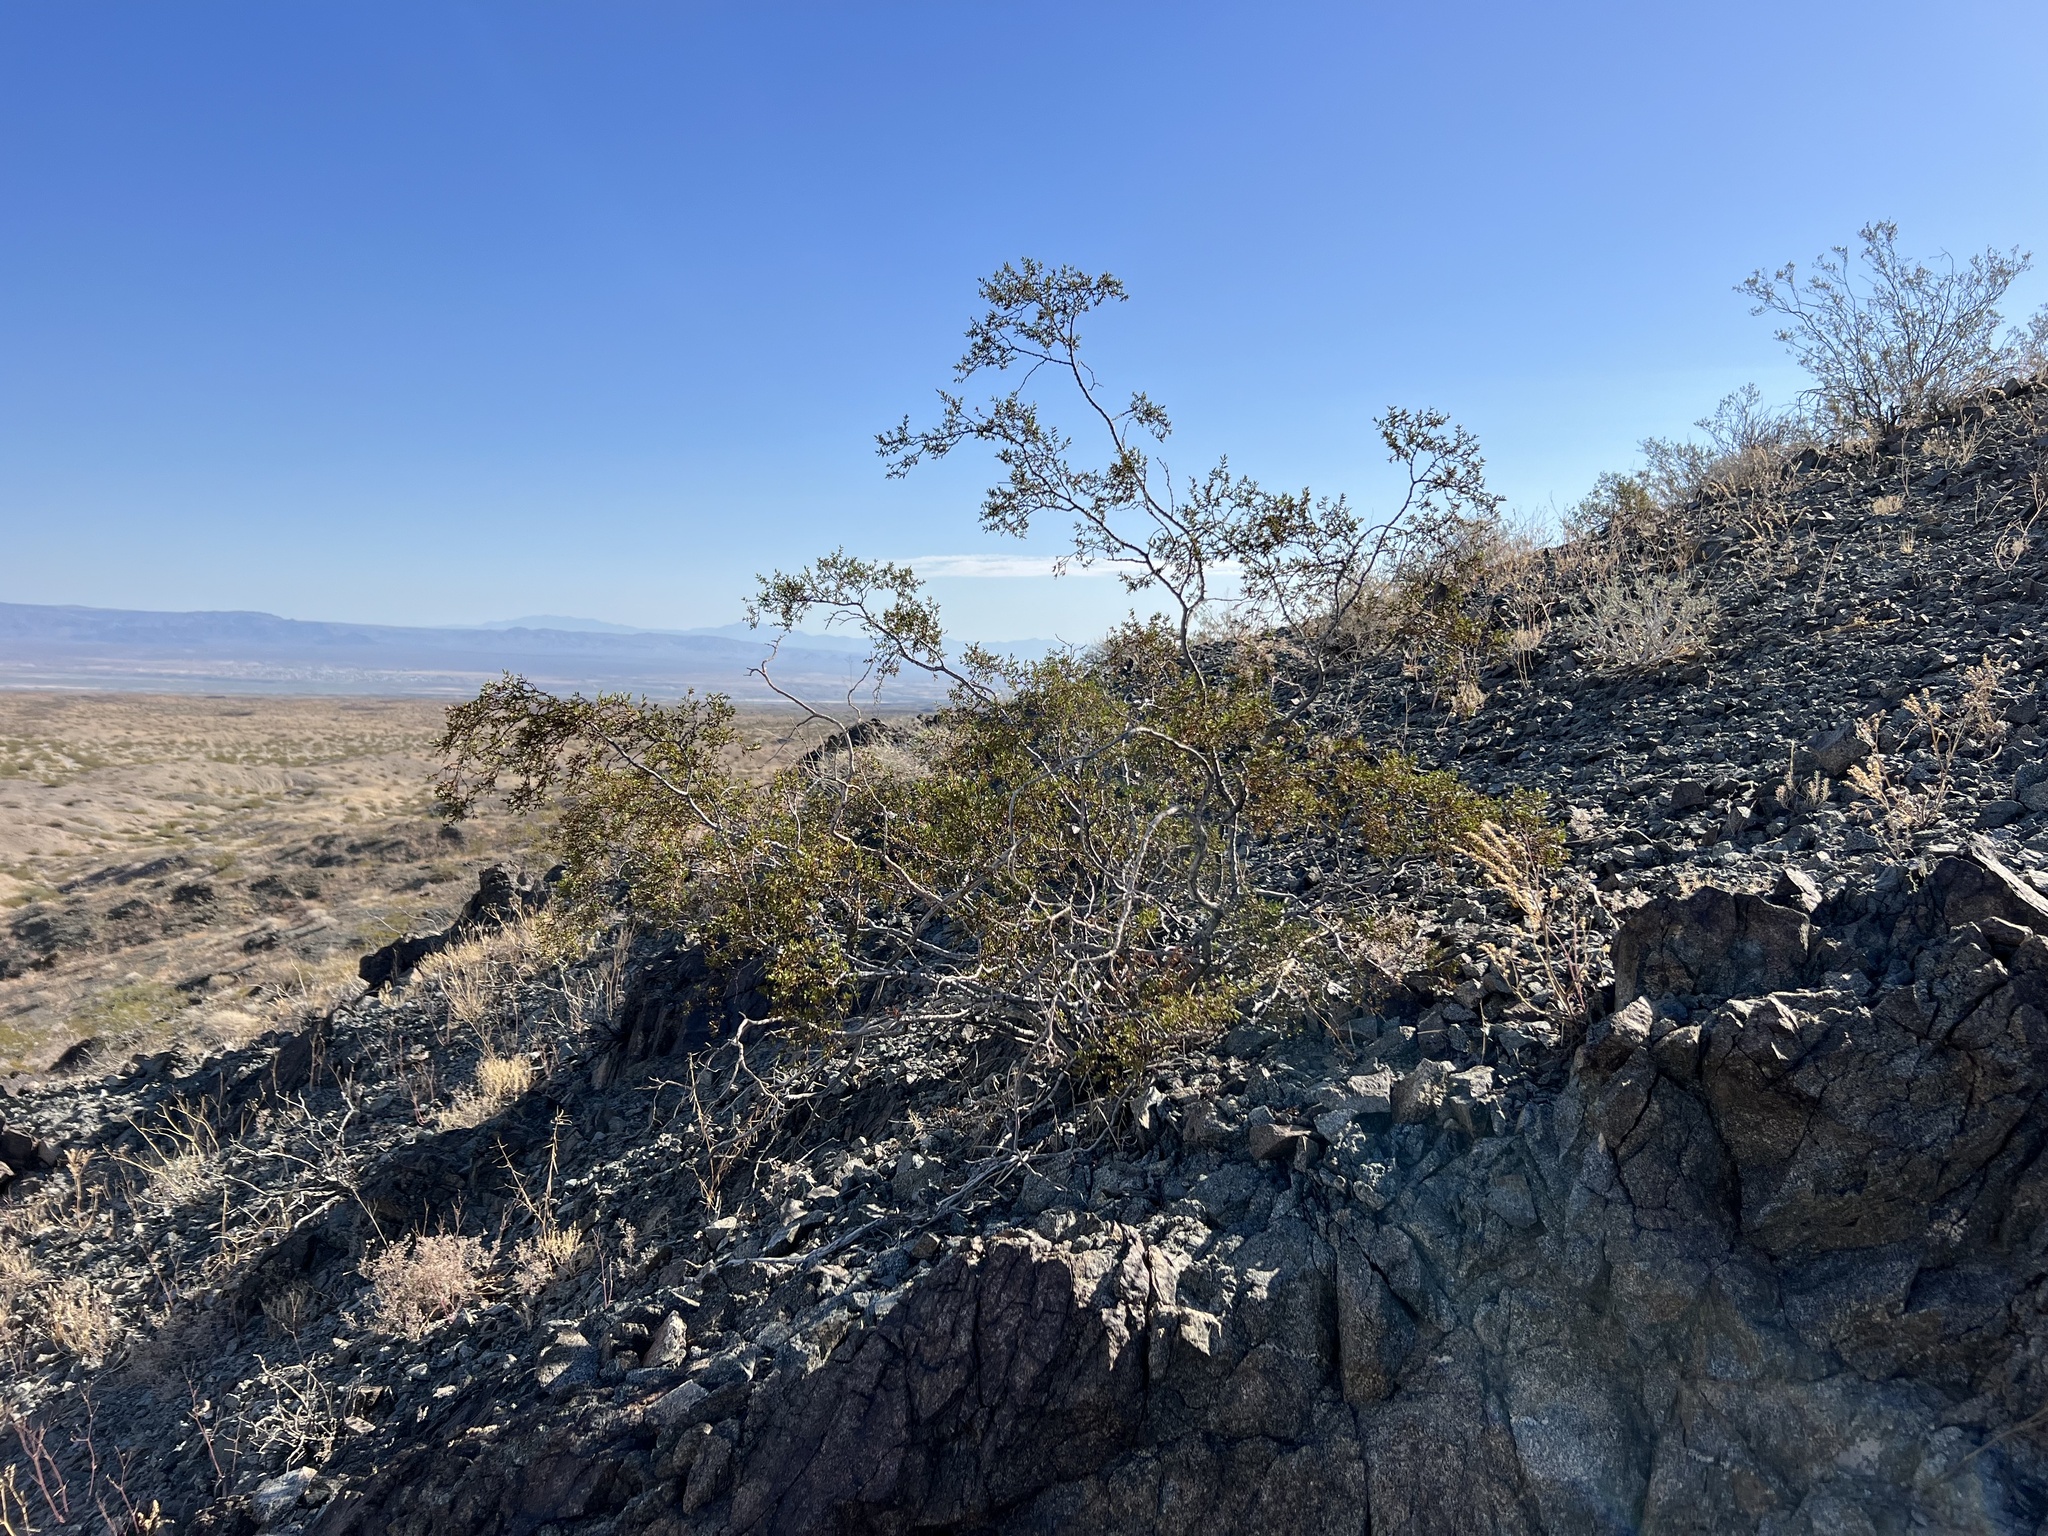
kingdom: Plantae
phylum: Tracheophyta
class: Magnoliopsida
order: Zygophyllales
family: Zygophyllaceae
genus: Larrea
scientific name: Larrea tridentata
